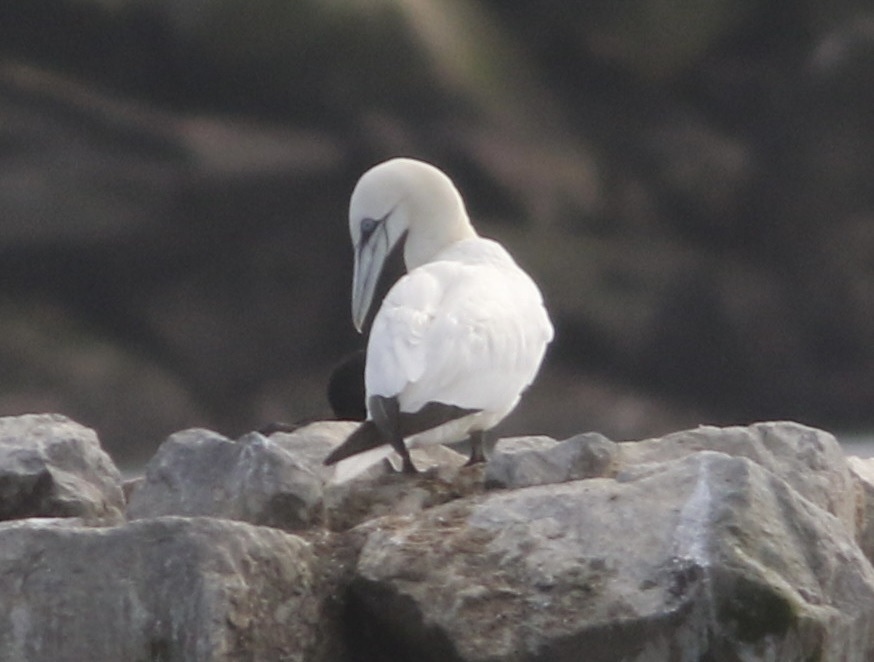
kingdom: Animalia
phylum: Chordata
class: Aves
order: Suliformes
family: Sulidae
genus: Morus
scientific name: Morus bassanus
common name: Northern gannet
